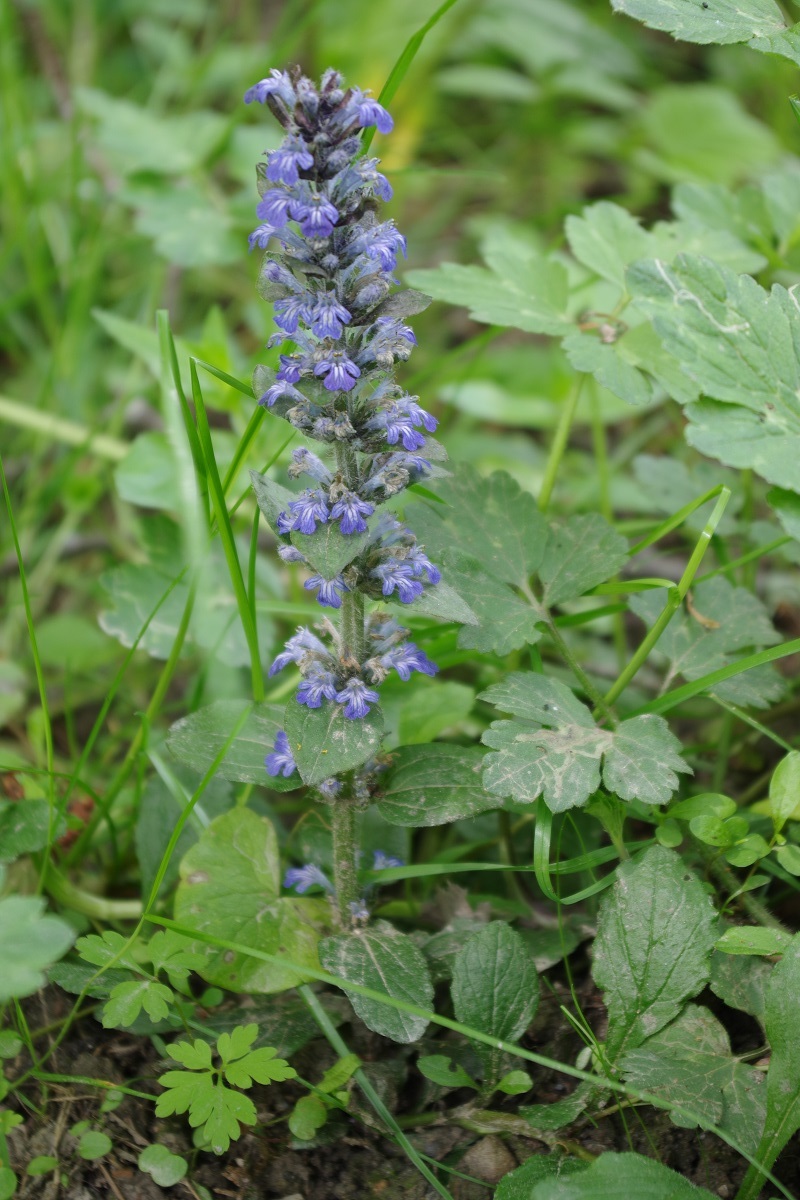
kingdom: Plantae
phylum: Tracheophyta
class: Magnoliopsida
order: Lamiales
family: Lamiaceae
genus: Ajuga
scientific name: Ajuga reptans
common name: Bugle
